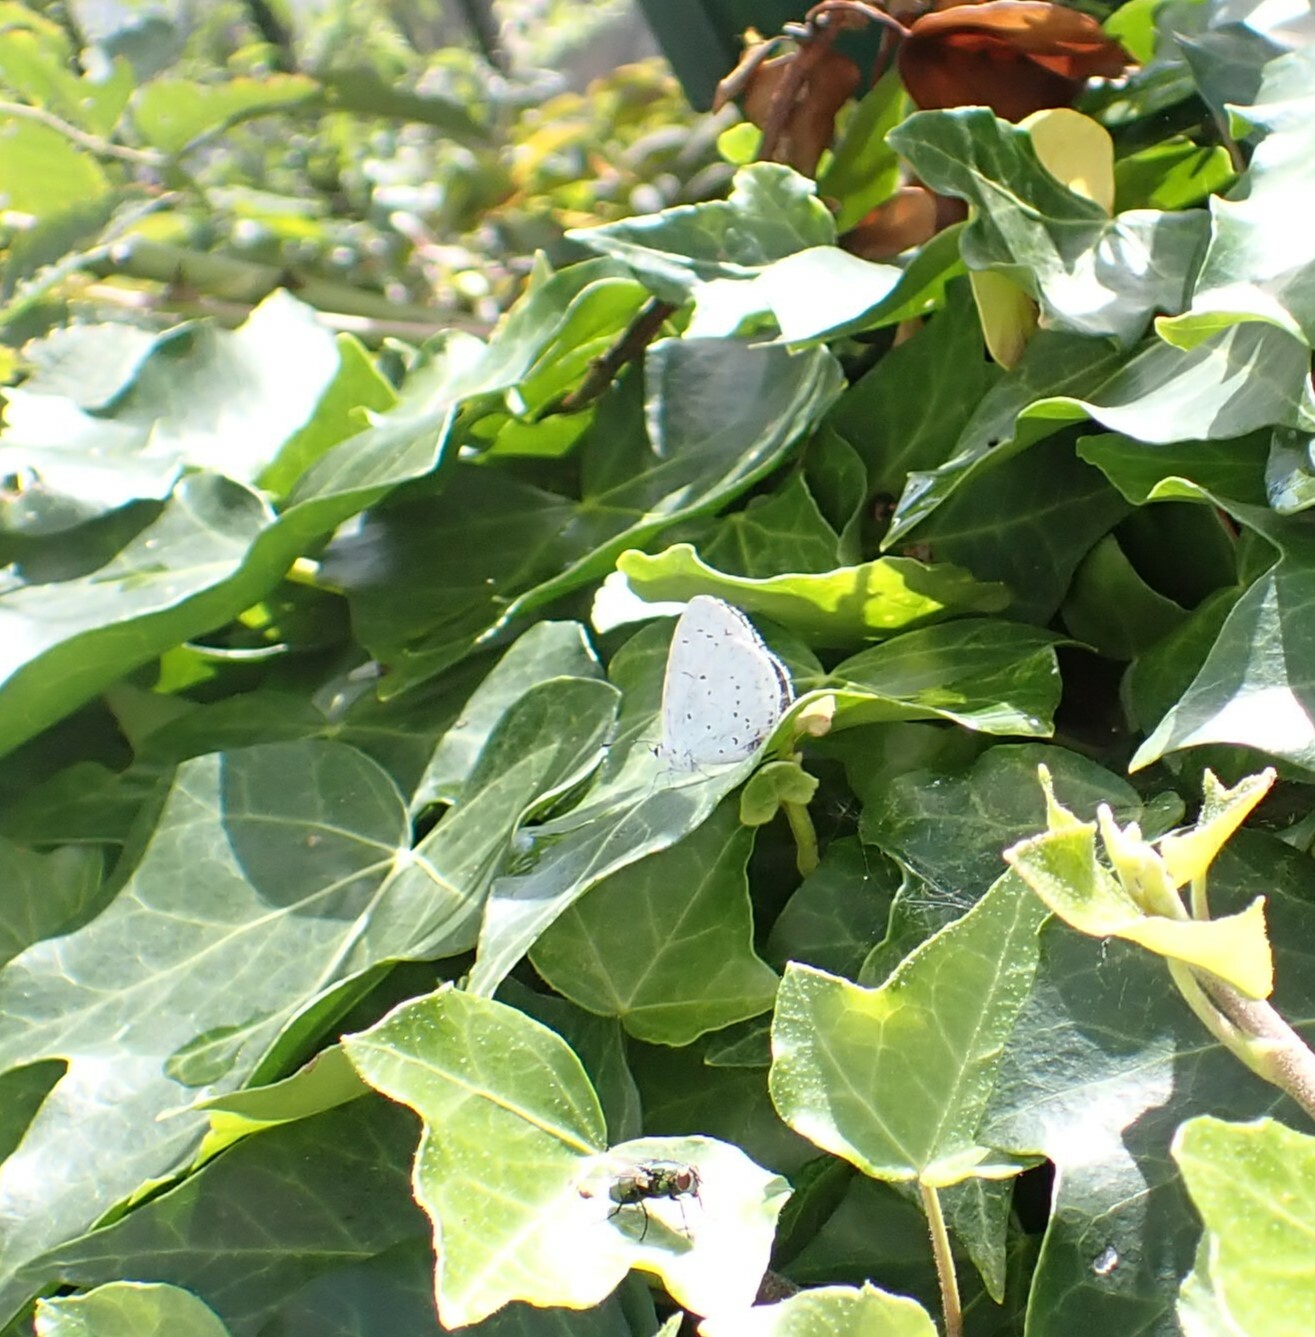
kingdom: Animalia
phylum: Arthropoda
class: Insecta
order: Lepidoptera
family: Lycaenidae
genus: Celastrina
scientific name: Celastrina argiolus
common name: Holly blue
